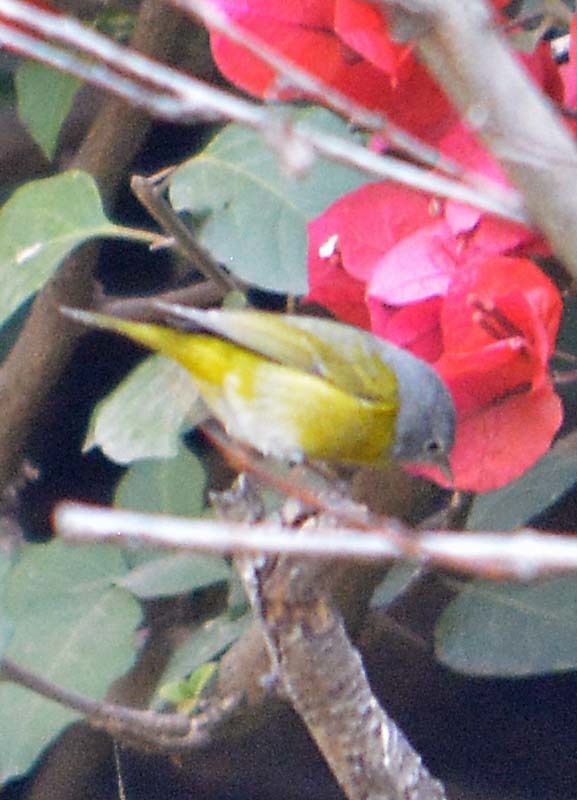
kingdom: Animalia
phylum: Chordata
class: Aves
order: Passeriformes
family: Parulidae
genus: Leiothlypis
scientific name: Leiothlypis ruficapilla
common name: Nashville warbler
